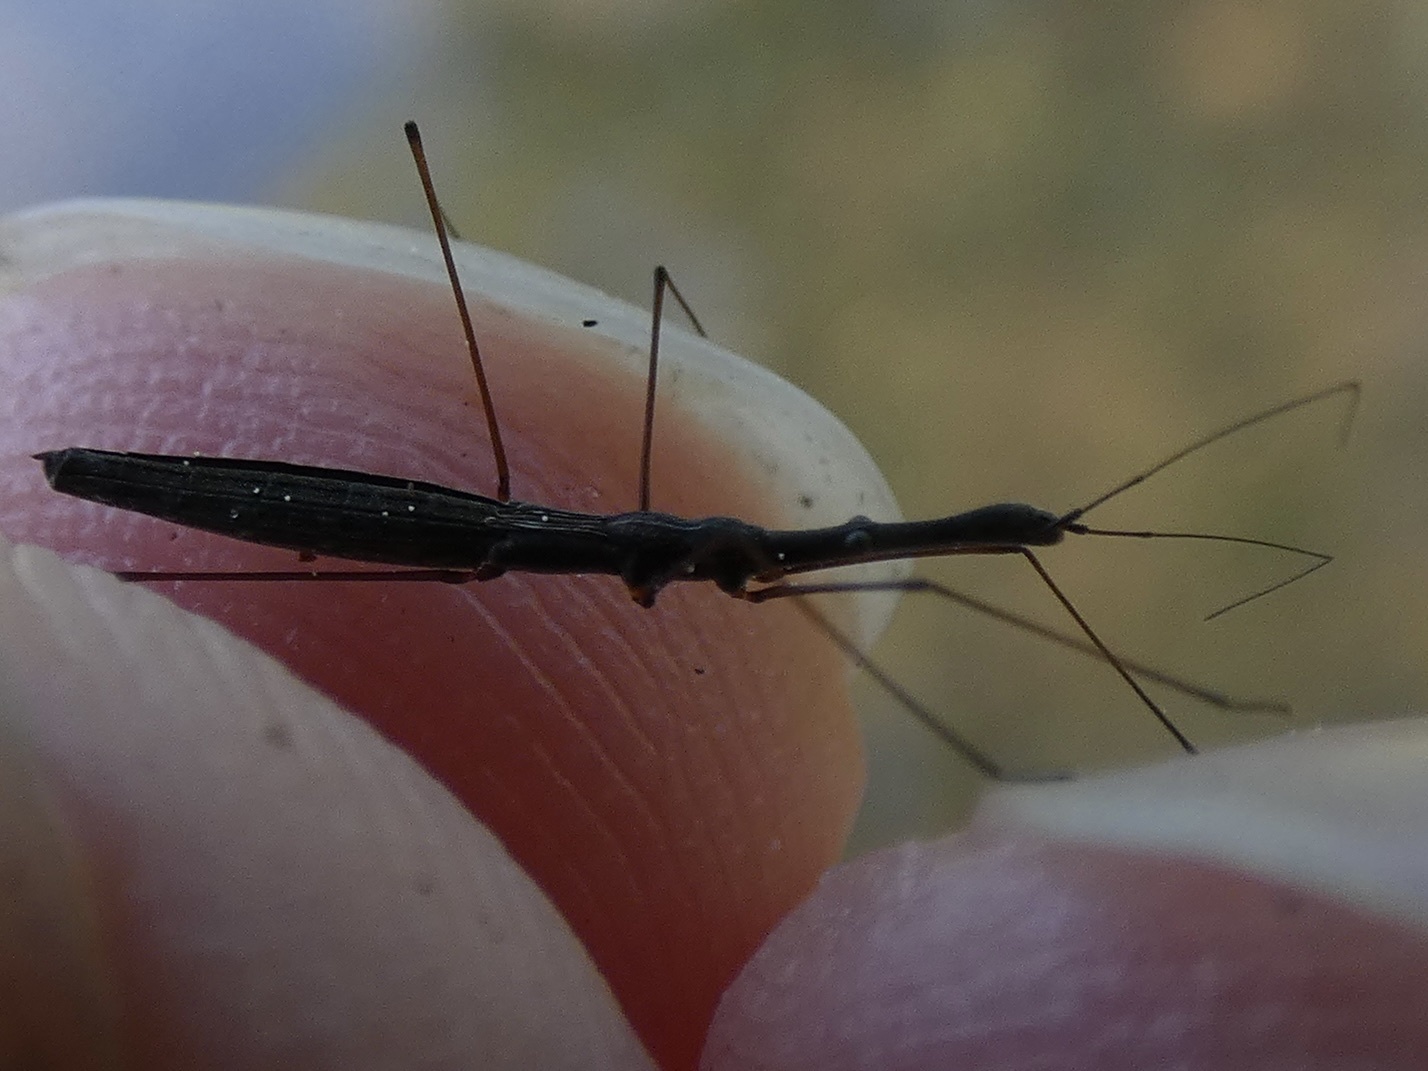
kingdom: Animalia
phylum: Arthropoda
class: Insecta
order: Hemiptera
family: Hydrometridae
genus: Hydrometra
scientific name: Hydrometra stagnorum
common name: Water measurer
